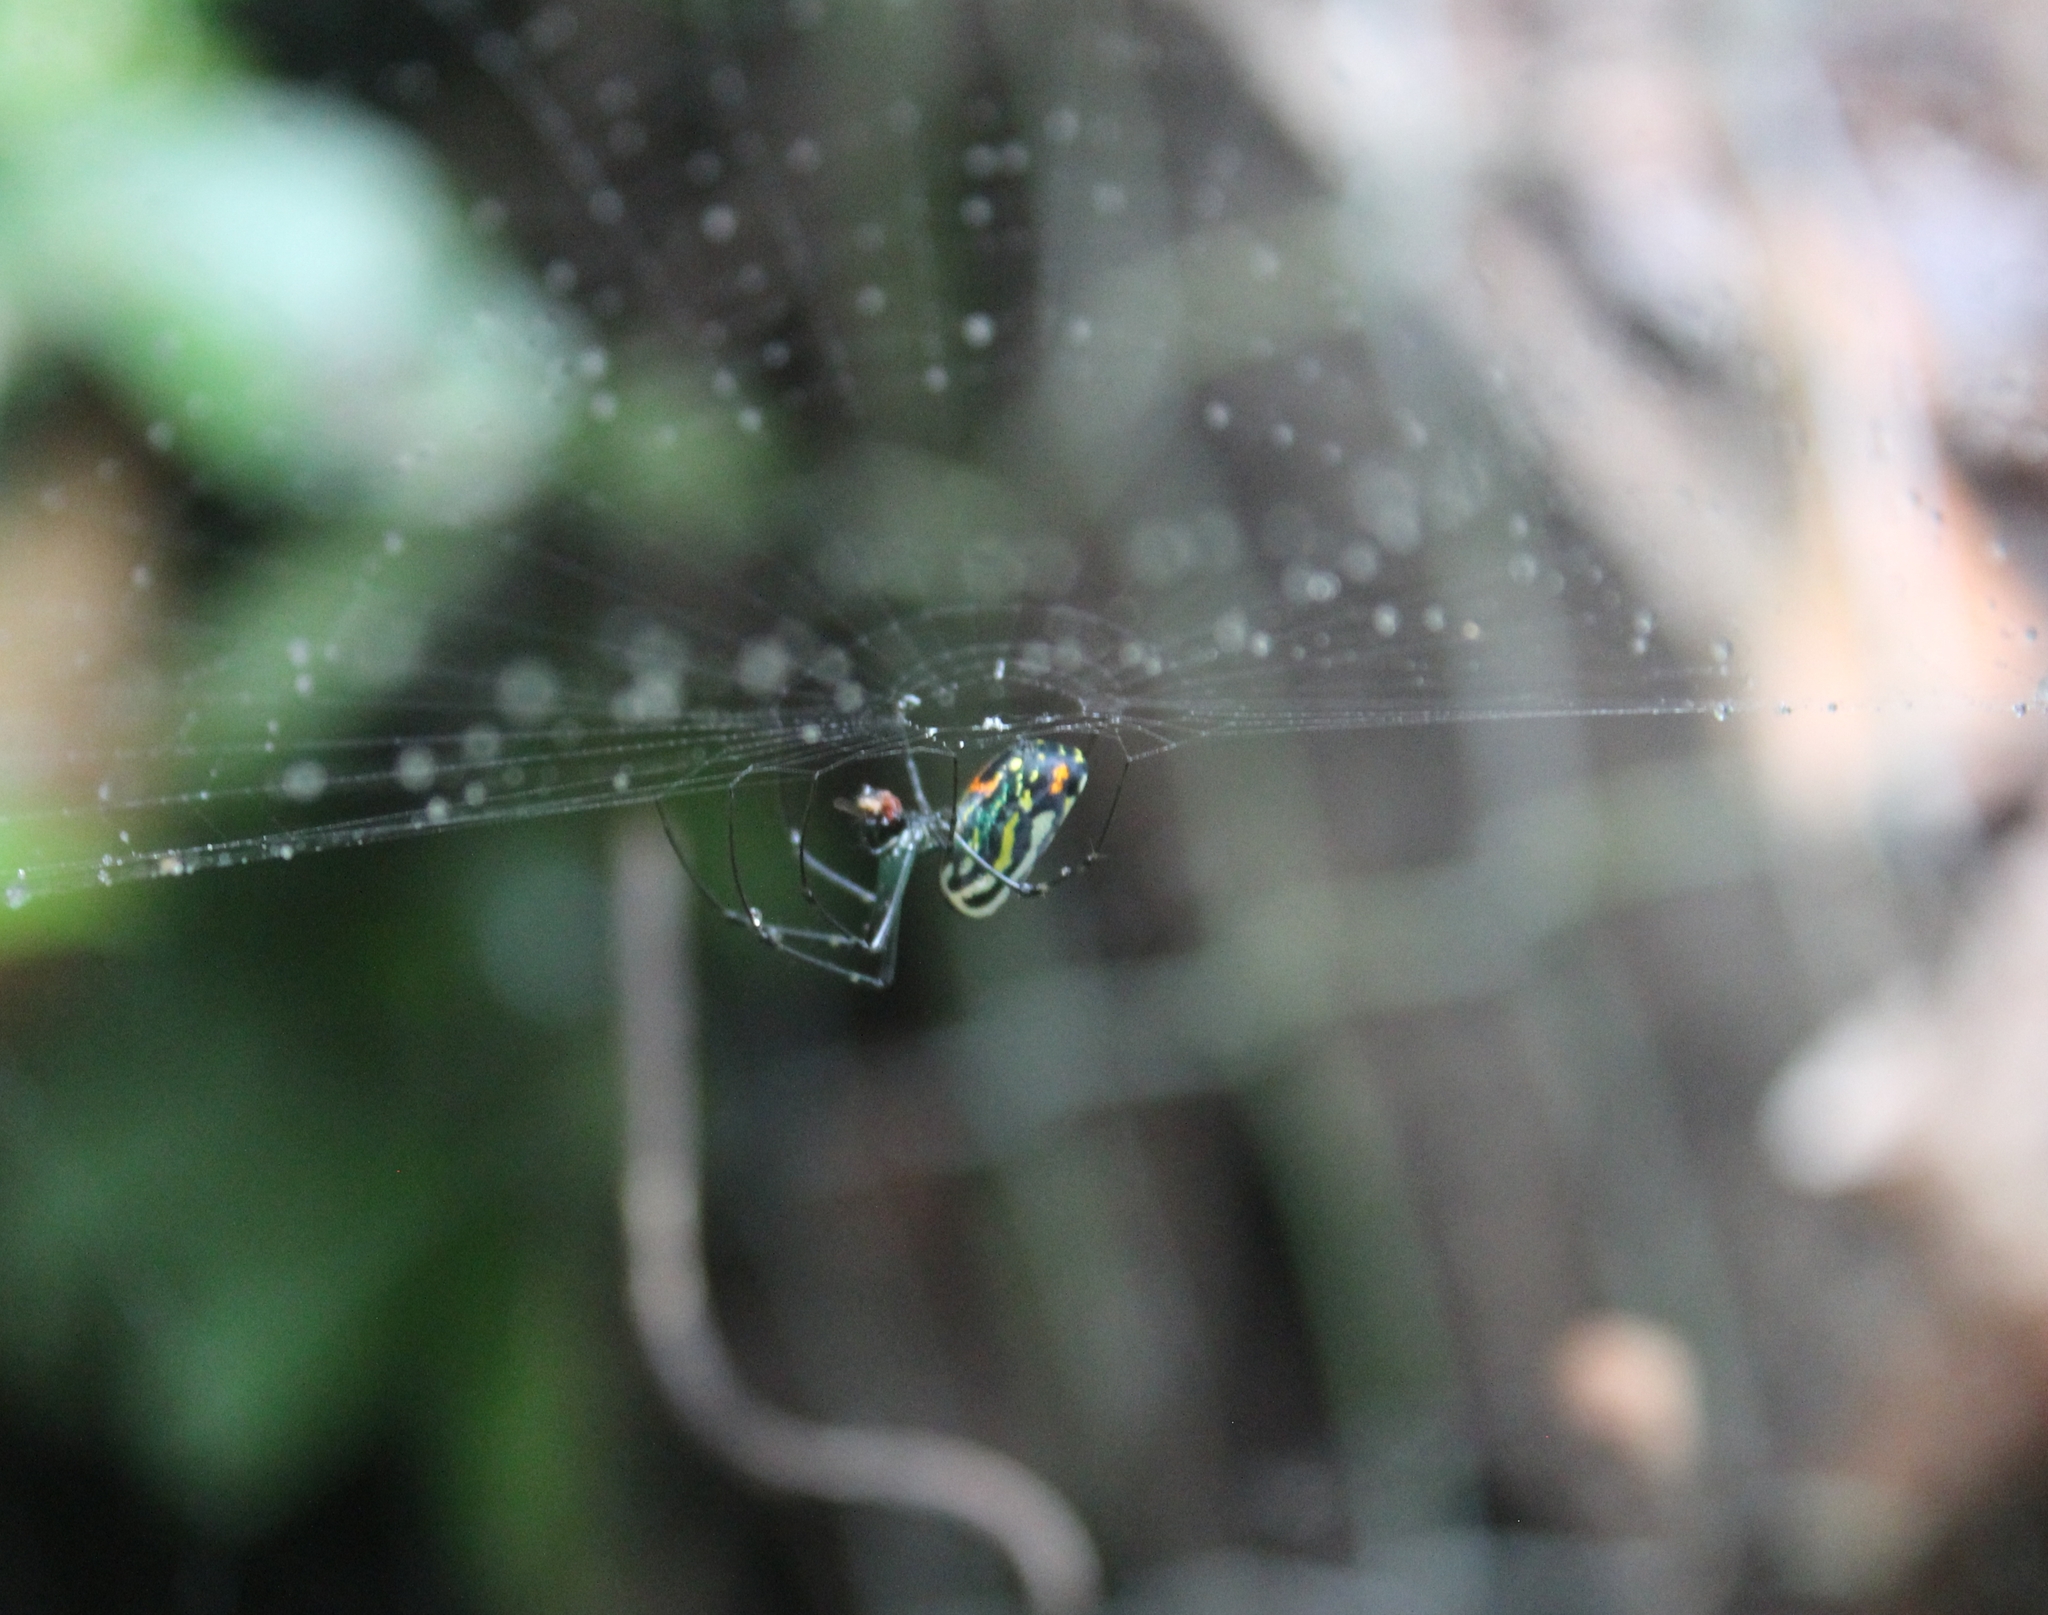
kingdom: Animalia
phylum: Arthropoda
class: Arachnida
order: Araneae
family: Tetragnathidae
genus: Leucauge
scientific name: Leucauge mariana
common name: Longjawed orb weavers
